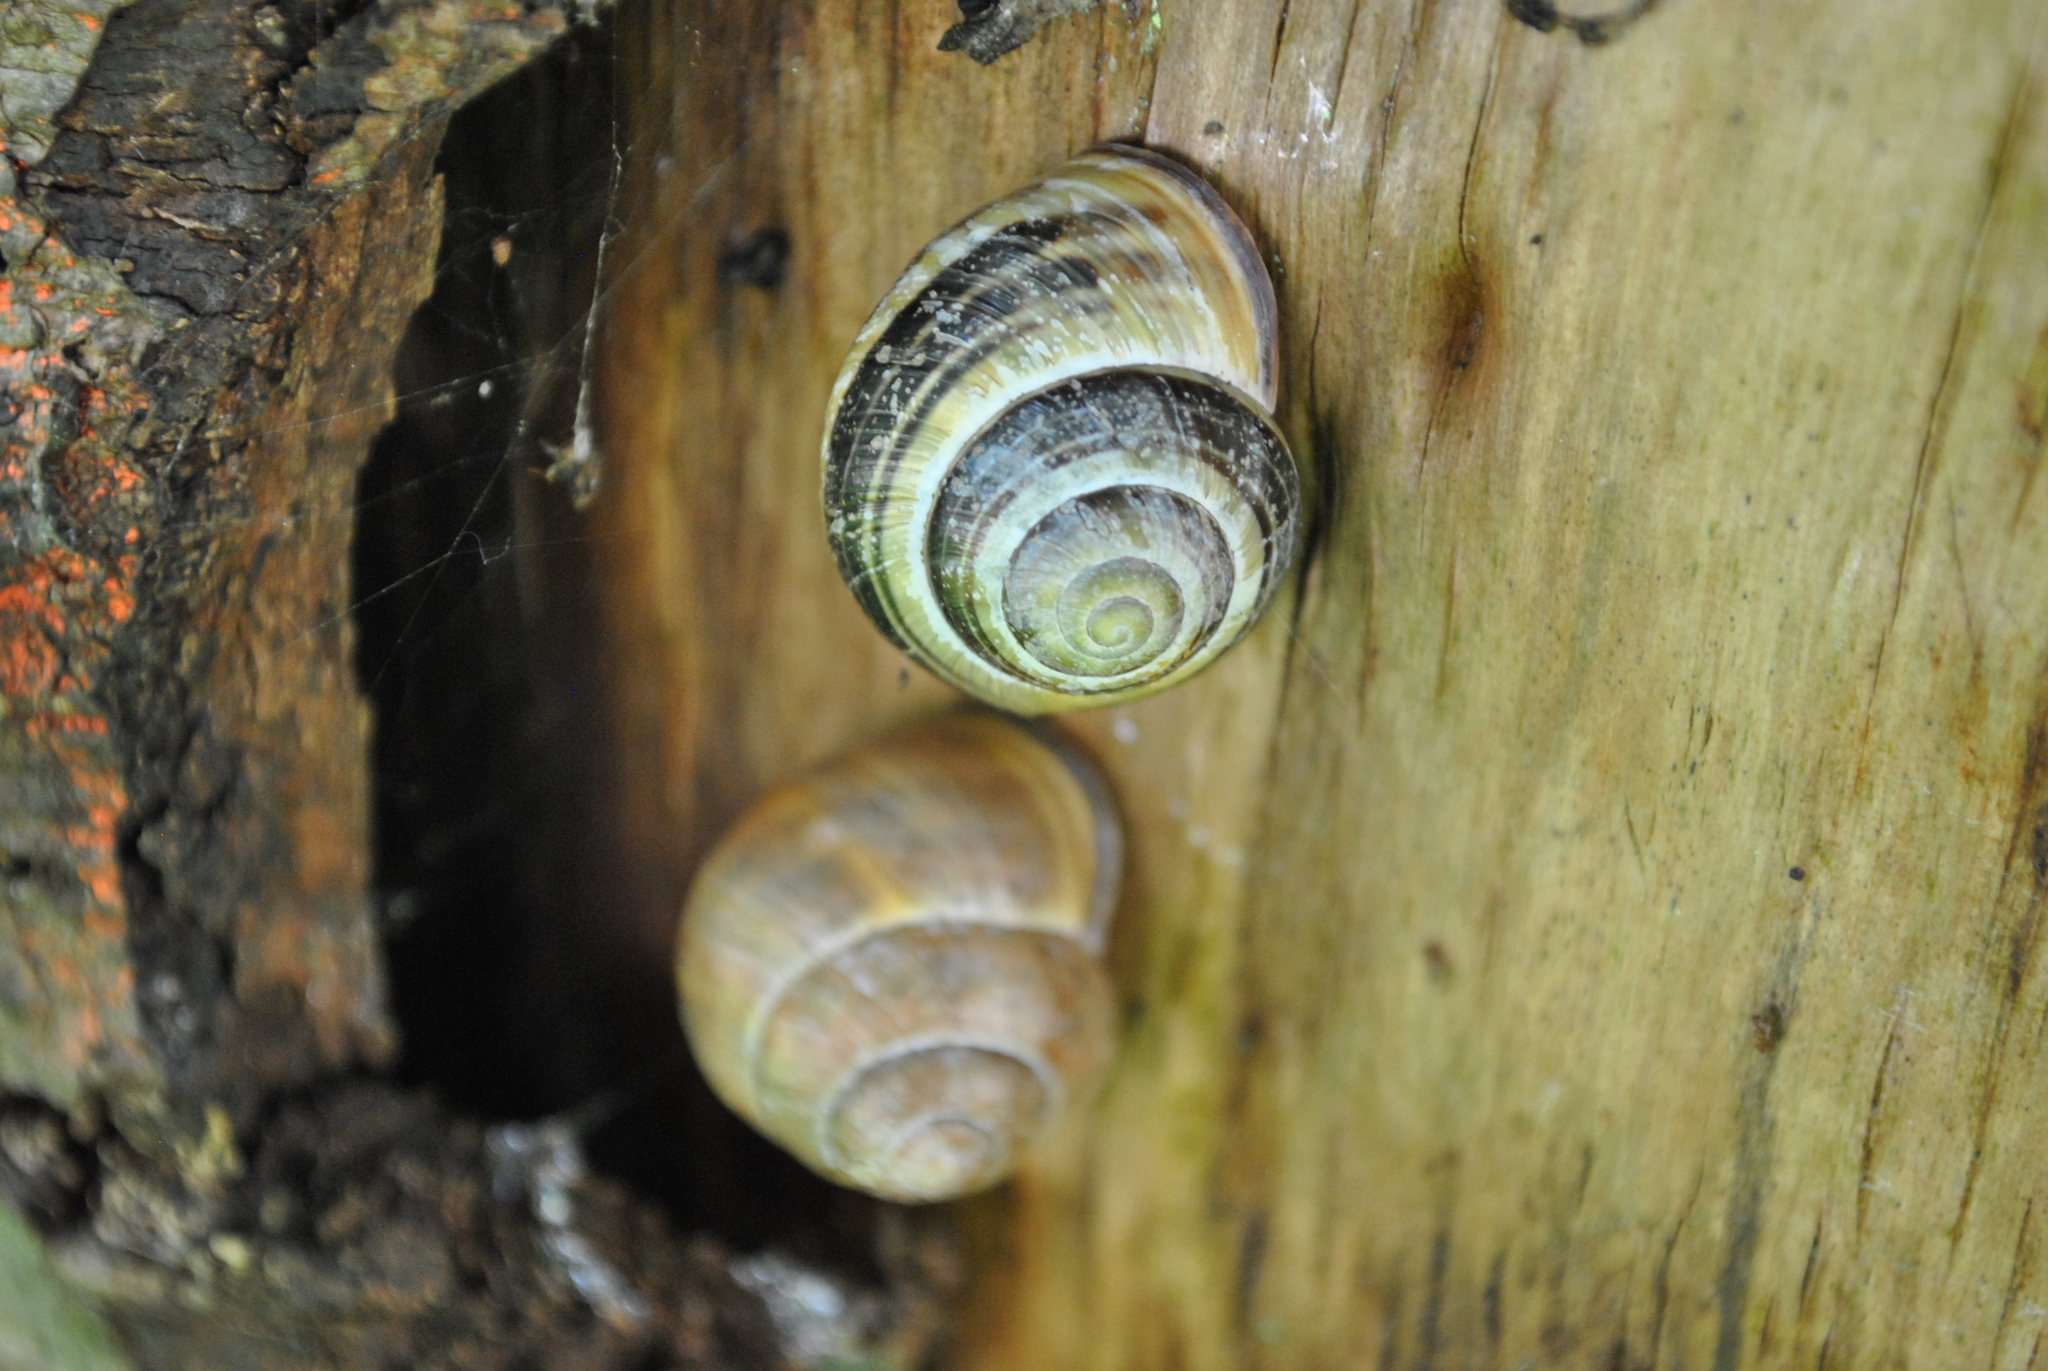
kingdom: Animalia
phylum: Mollusca
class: Gastropoda
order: Stylommatophora
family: Helicidae
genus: Cepaea
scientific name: Cepaea nemoralis
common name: Grovesnail
